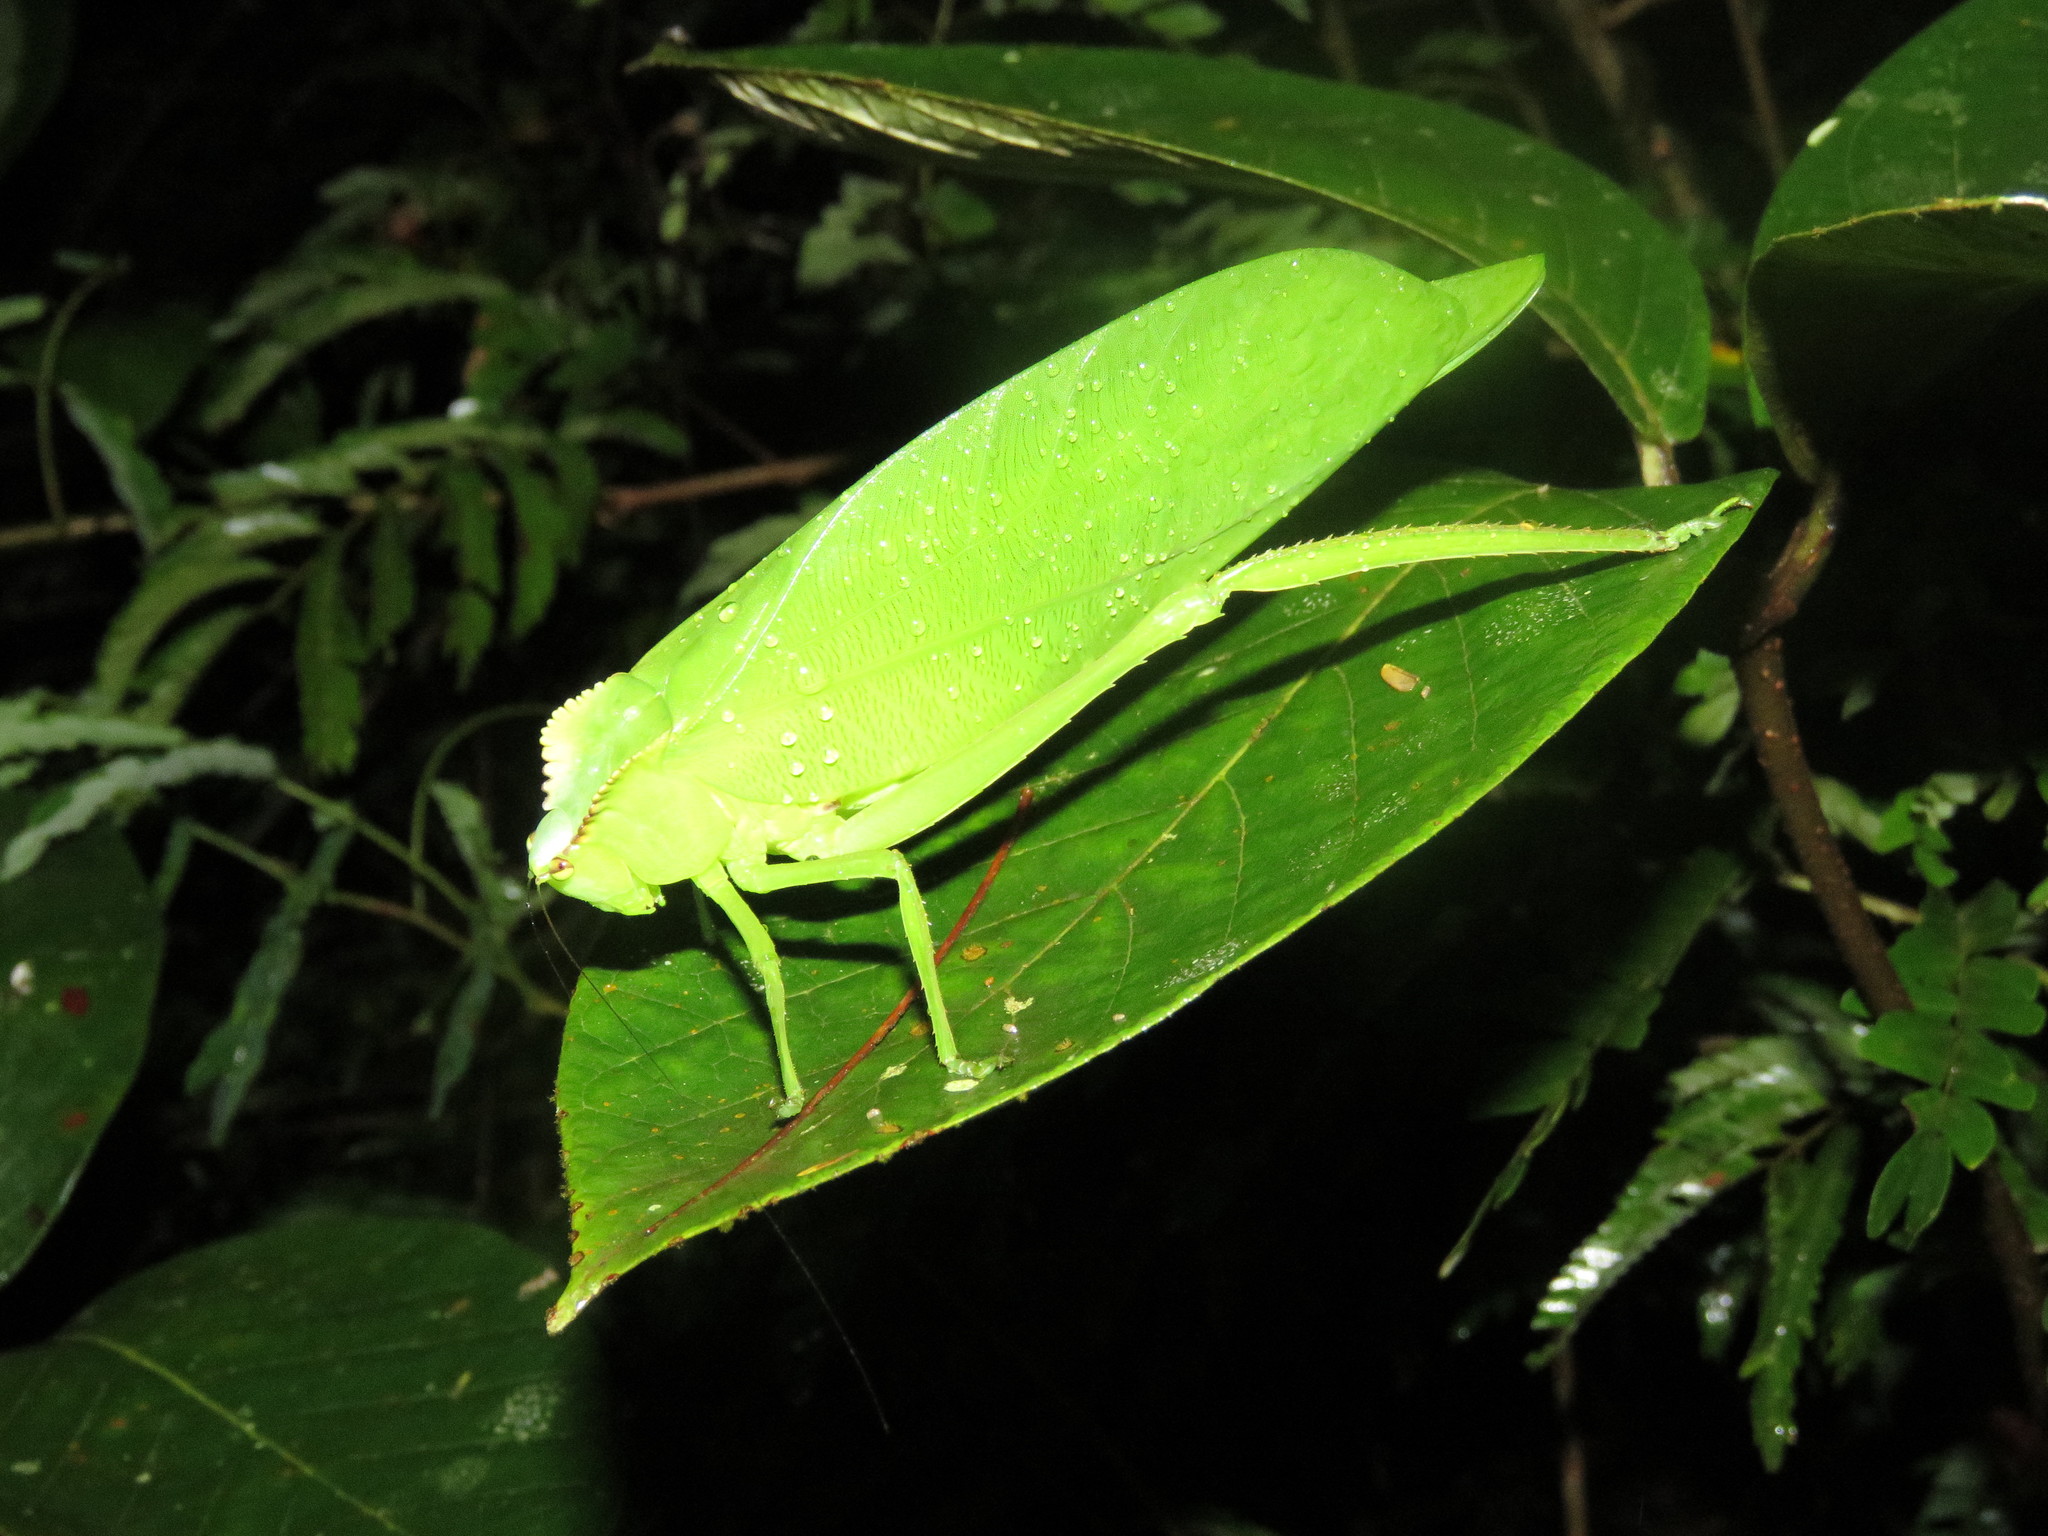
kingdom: Animalia
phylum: Arthropoda
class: Insecta
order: Orthoptera
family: Tettigoniidae
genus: Cnemidophyllum
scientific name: Cnemidophyllum citrifolium
